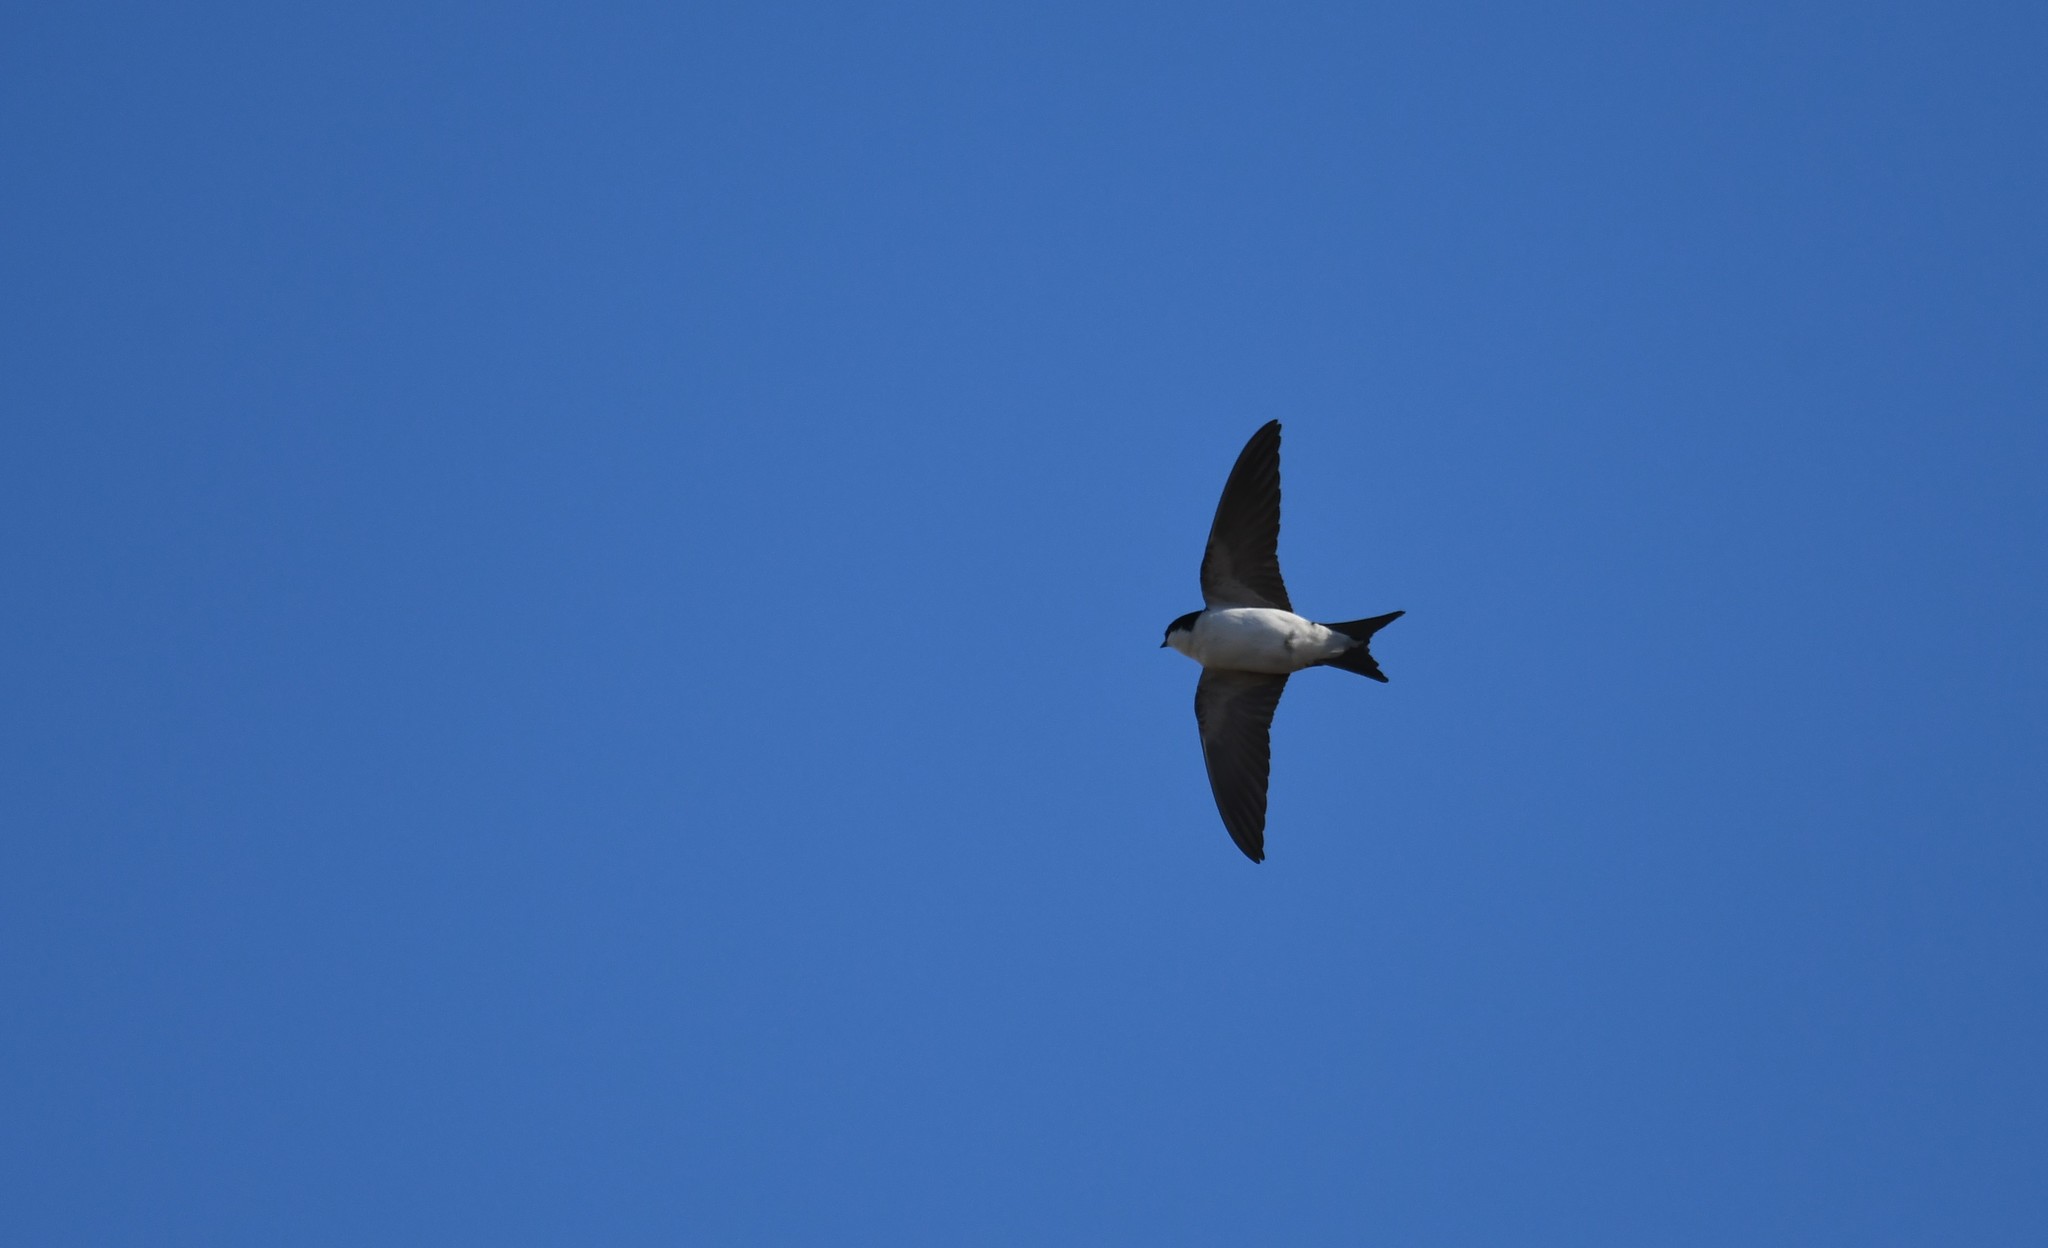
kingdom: Animalia
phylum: Chordata
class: Aves
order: Passeriformes
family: Hirundinidae
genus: Delichon
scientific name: Delichon urbicum
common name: Common house martin
